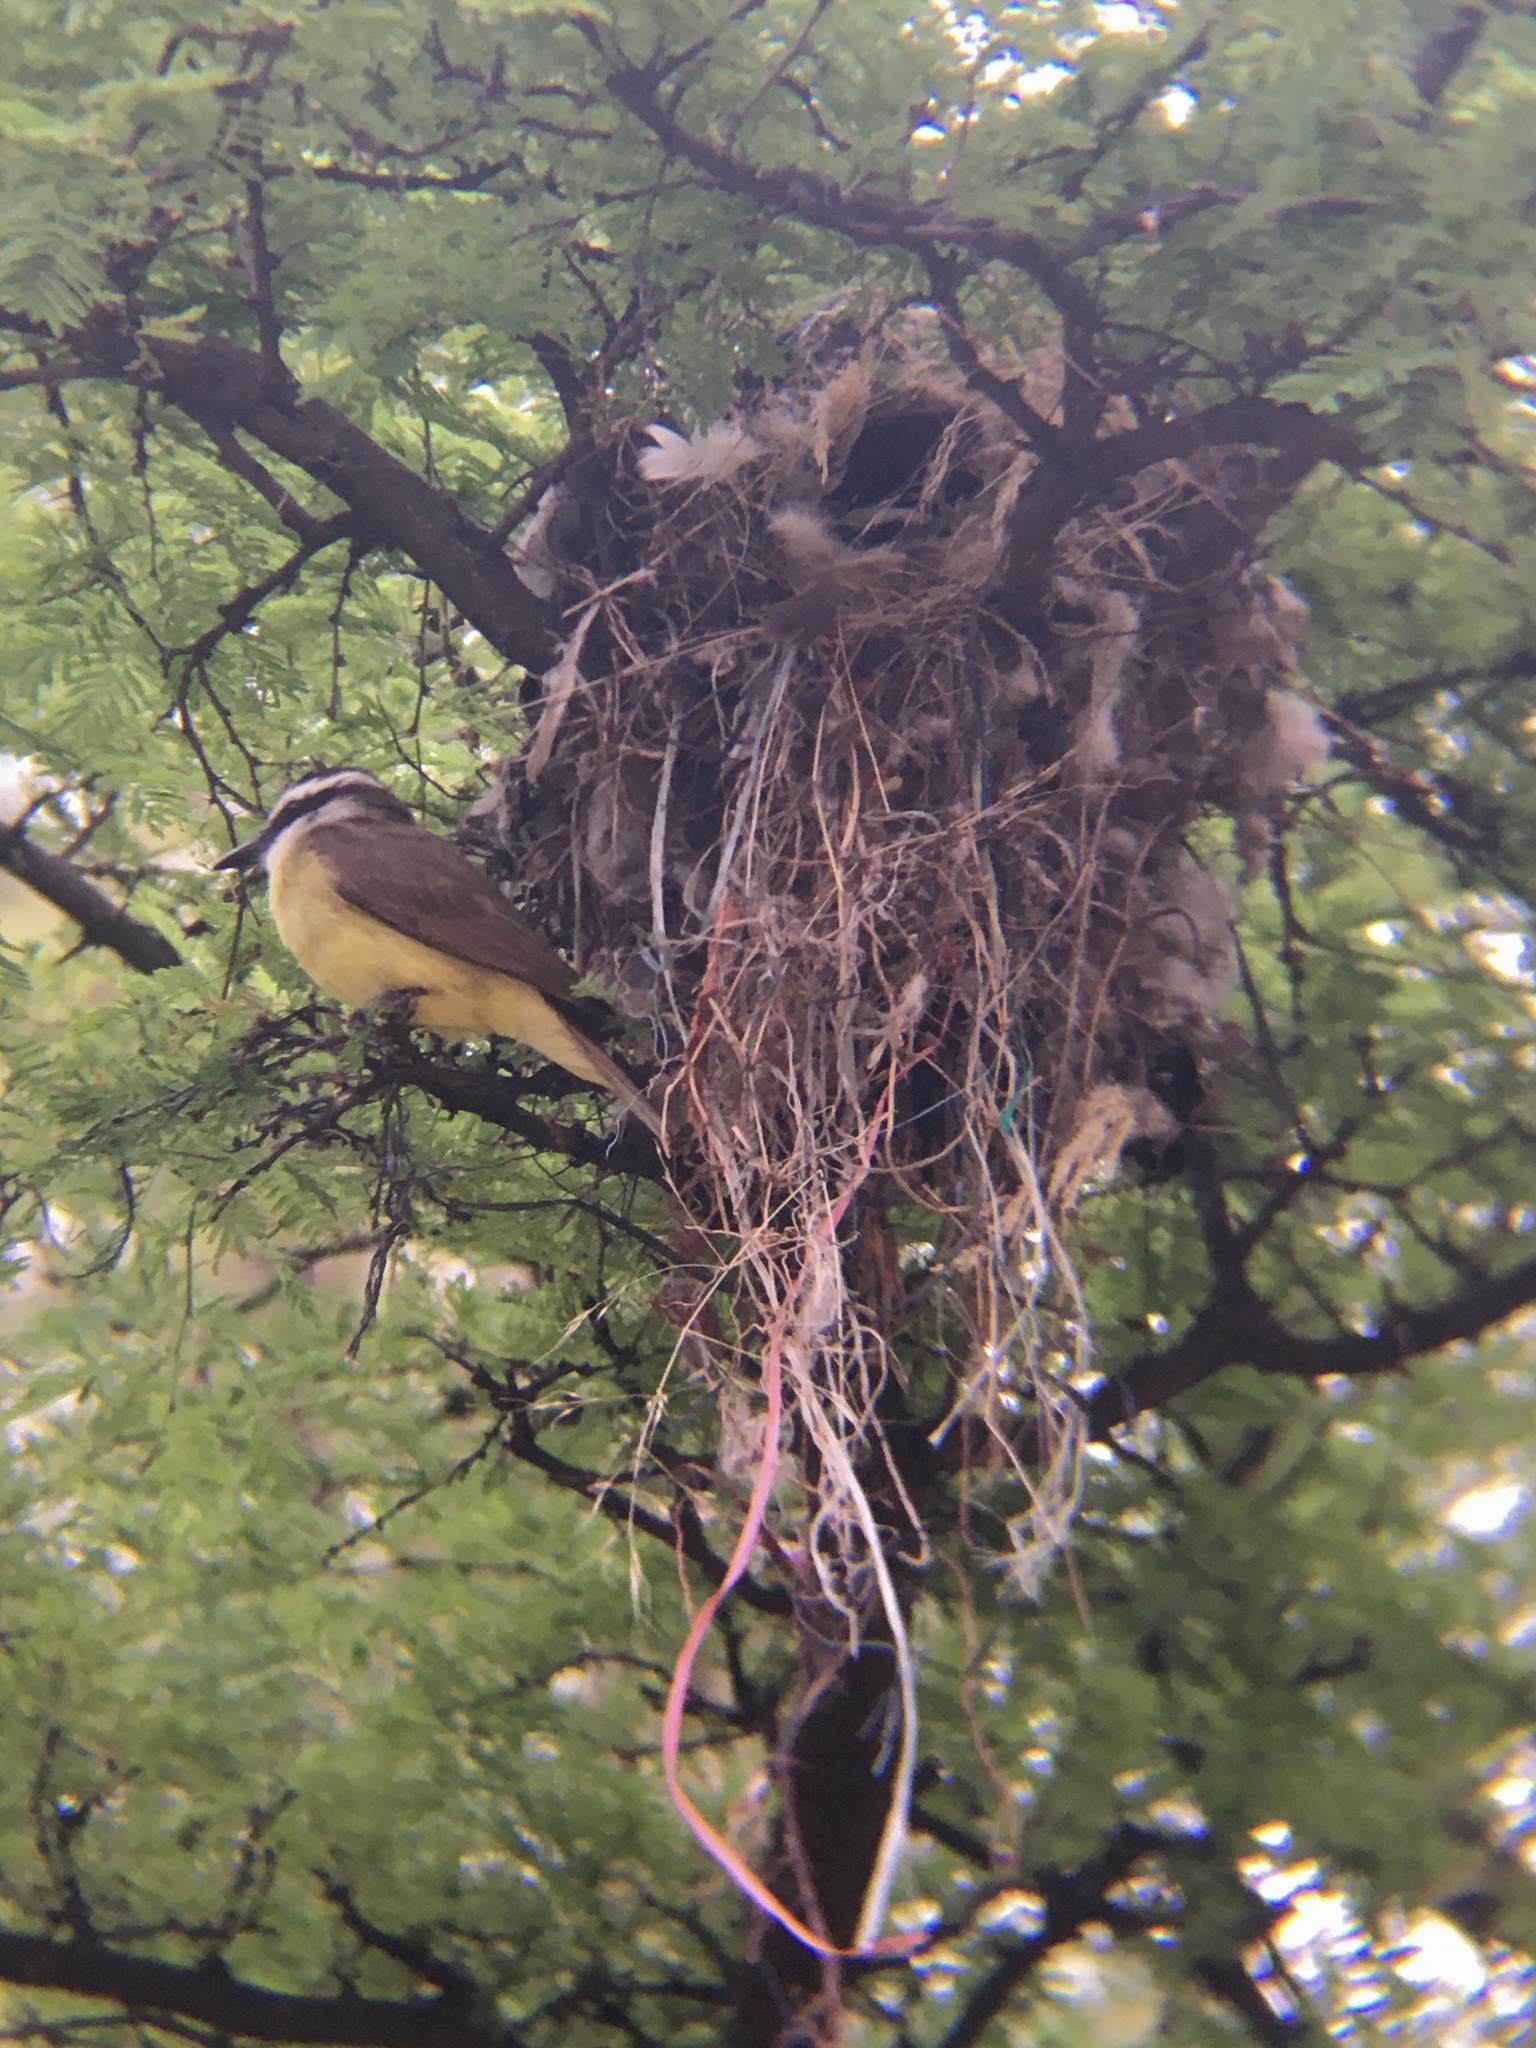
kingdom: Animalia
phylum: Chordata
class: Aves
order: Passeriformes
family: Tyrannidae
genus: Pitangus
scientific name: Pitangus sulphuratus
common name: Great kiskadee
